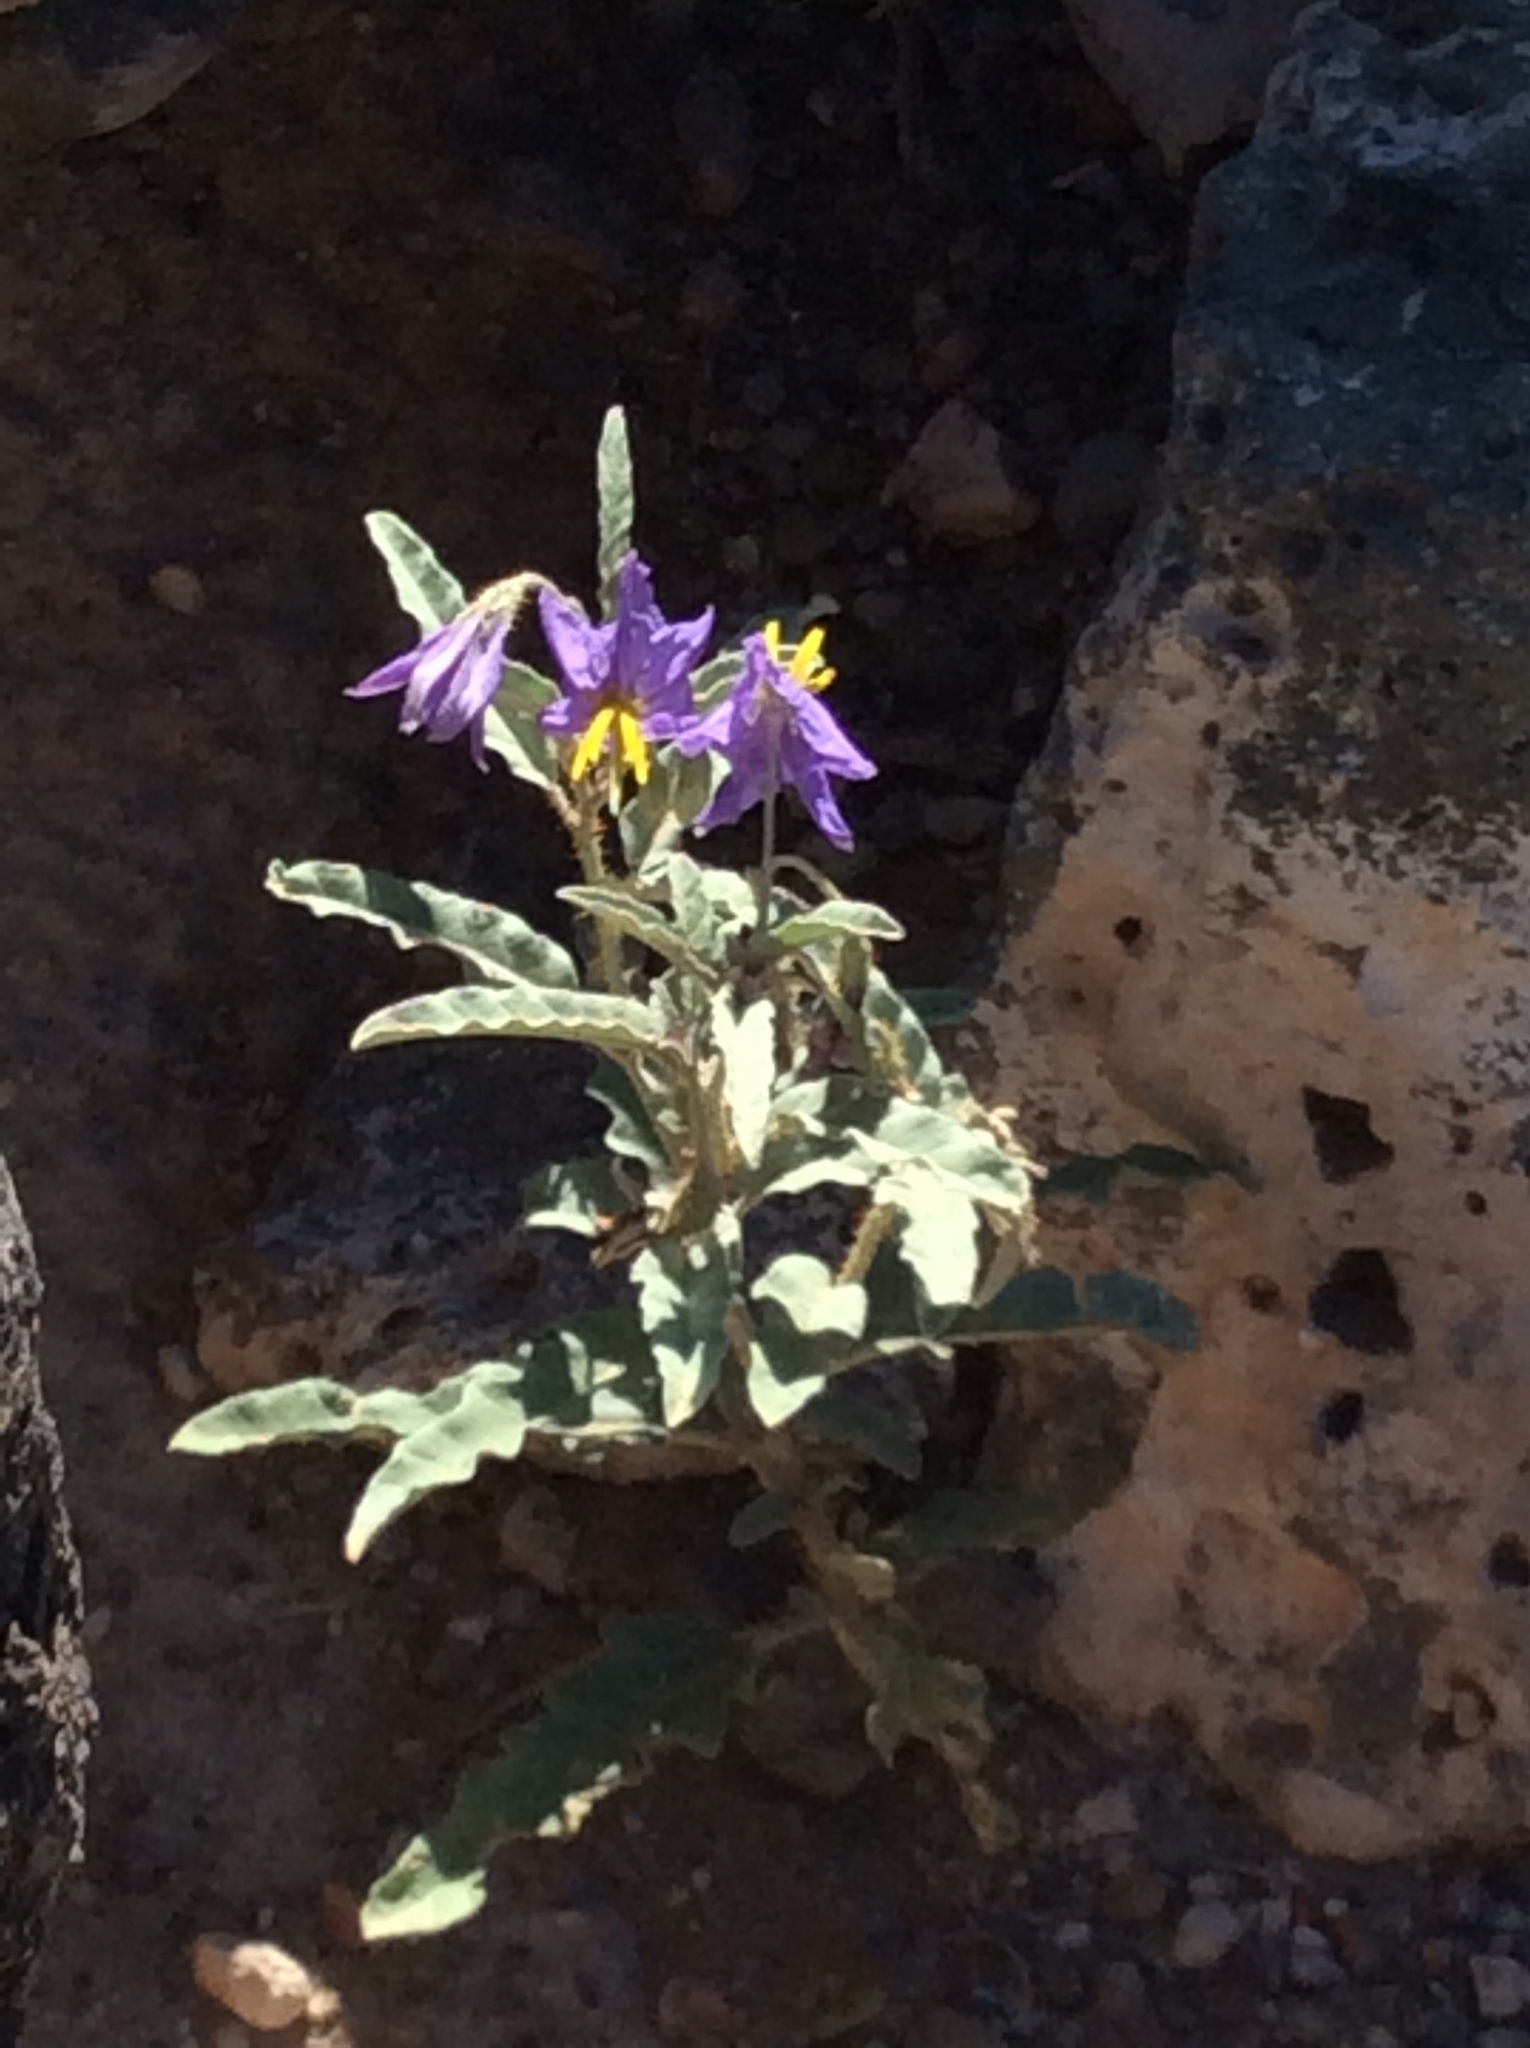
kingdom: Plantae
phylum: Tracheophyta
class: Magnoliopsida
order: Solanales
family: Solanaceae
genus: Solanum
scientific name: Solanum elaeagnifolium
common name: Silverleaf nightshade
